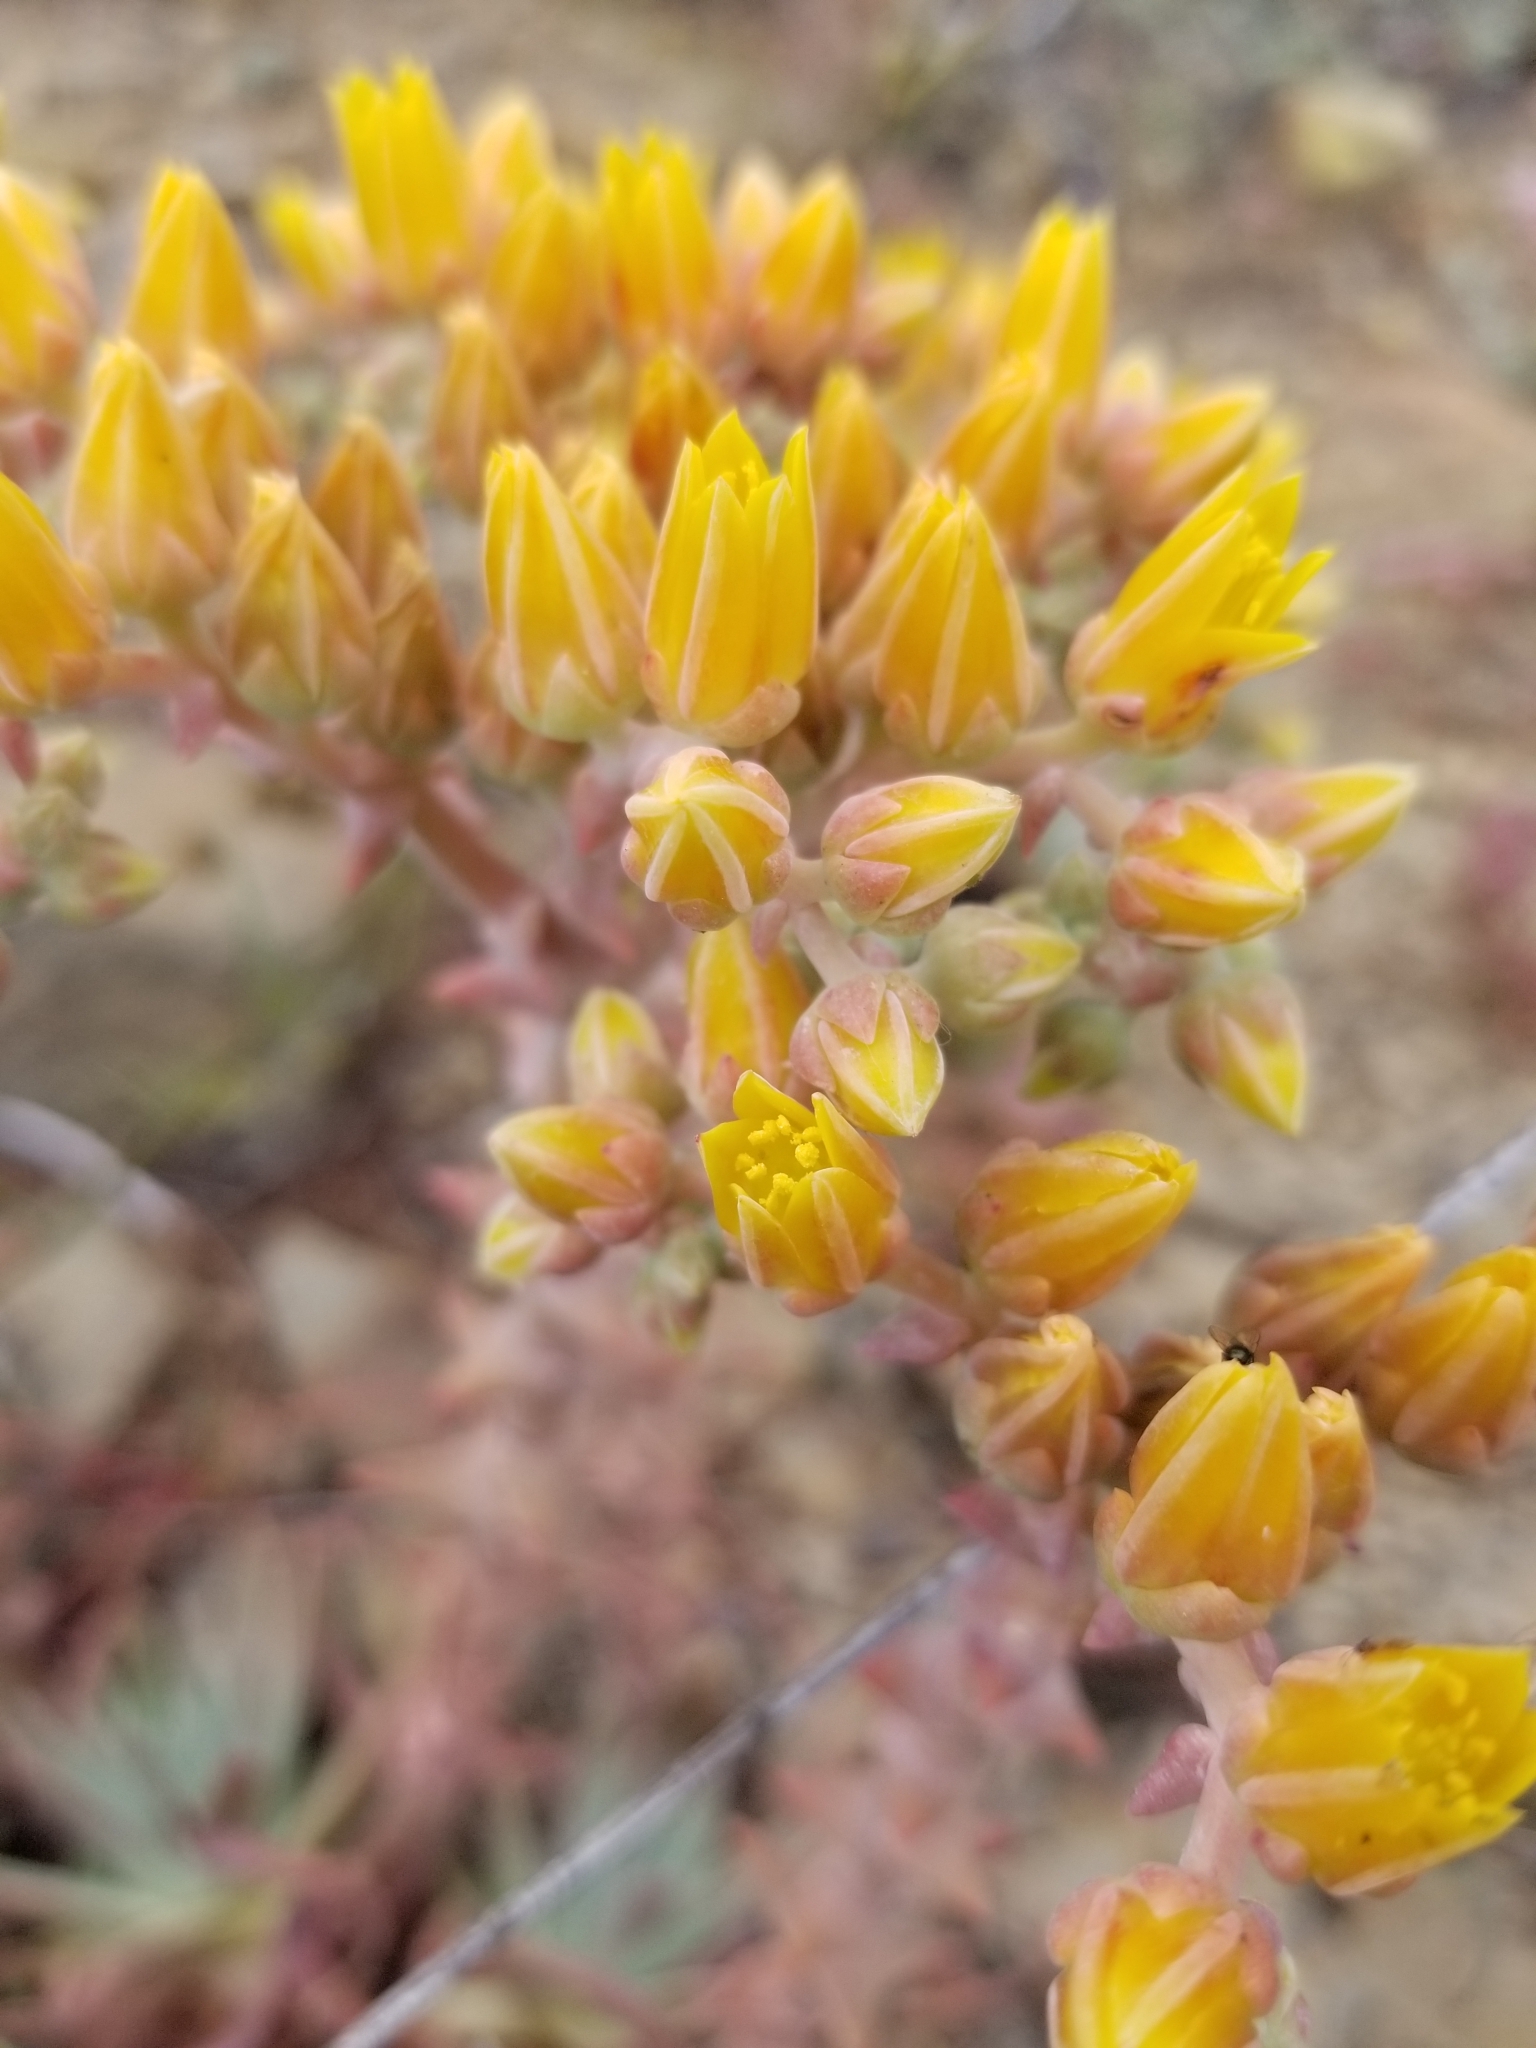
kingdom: Plantae
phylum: Tracheophyta
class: Magnoliopsida
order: Saxifragales
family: Crassulaceae
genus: Dudleya
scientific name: Dudleya caespitosa
